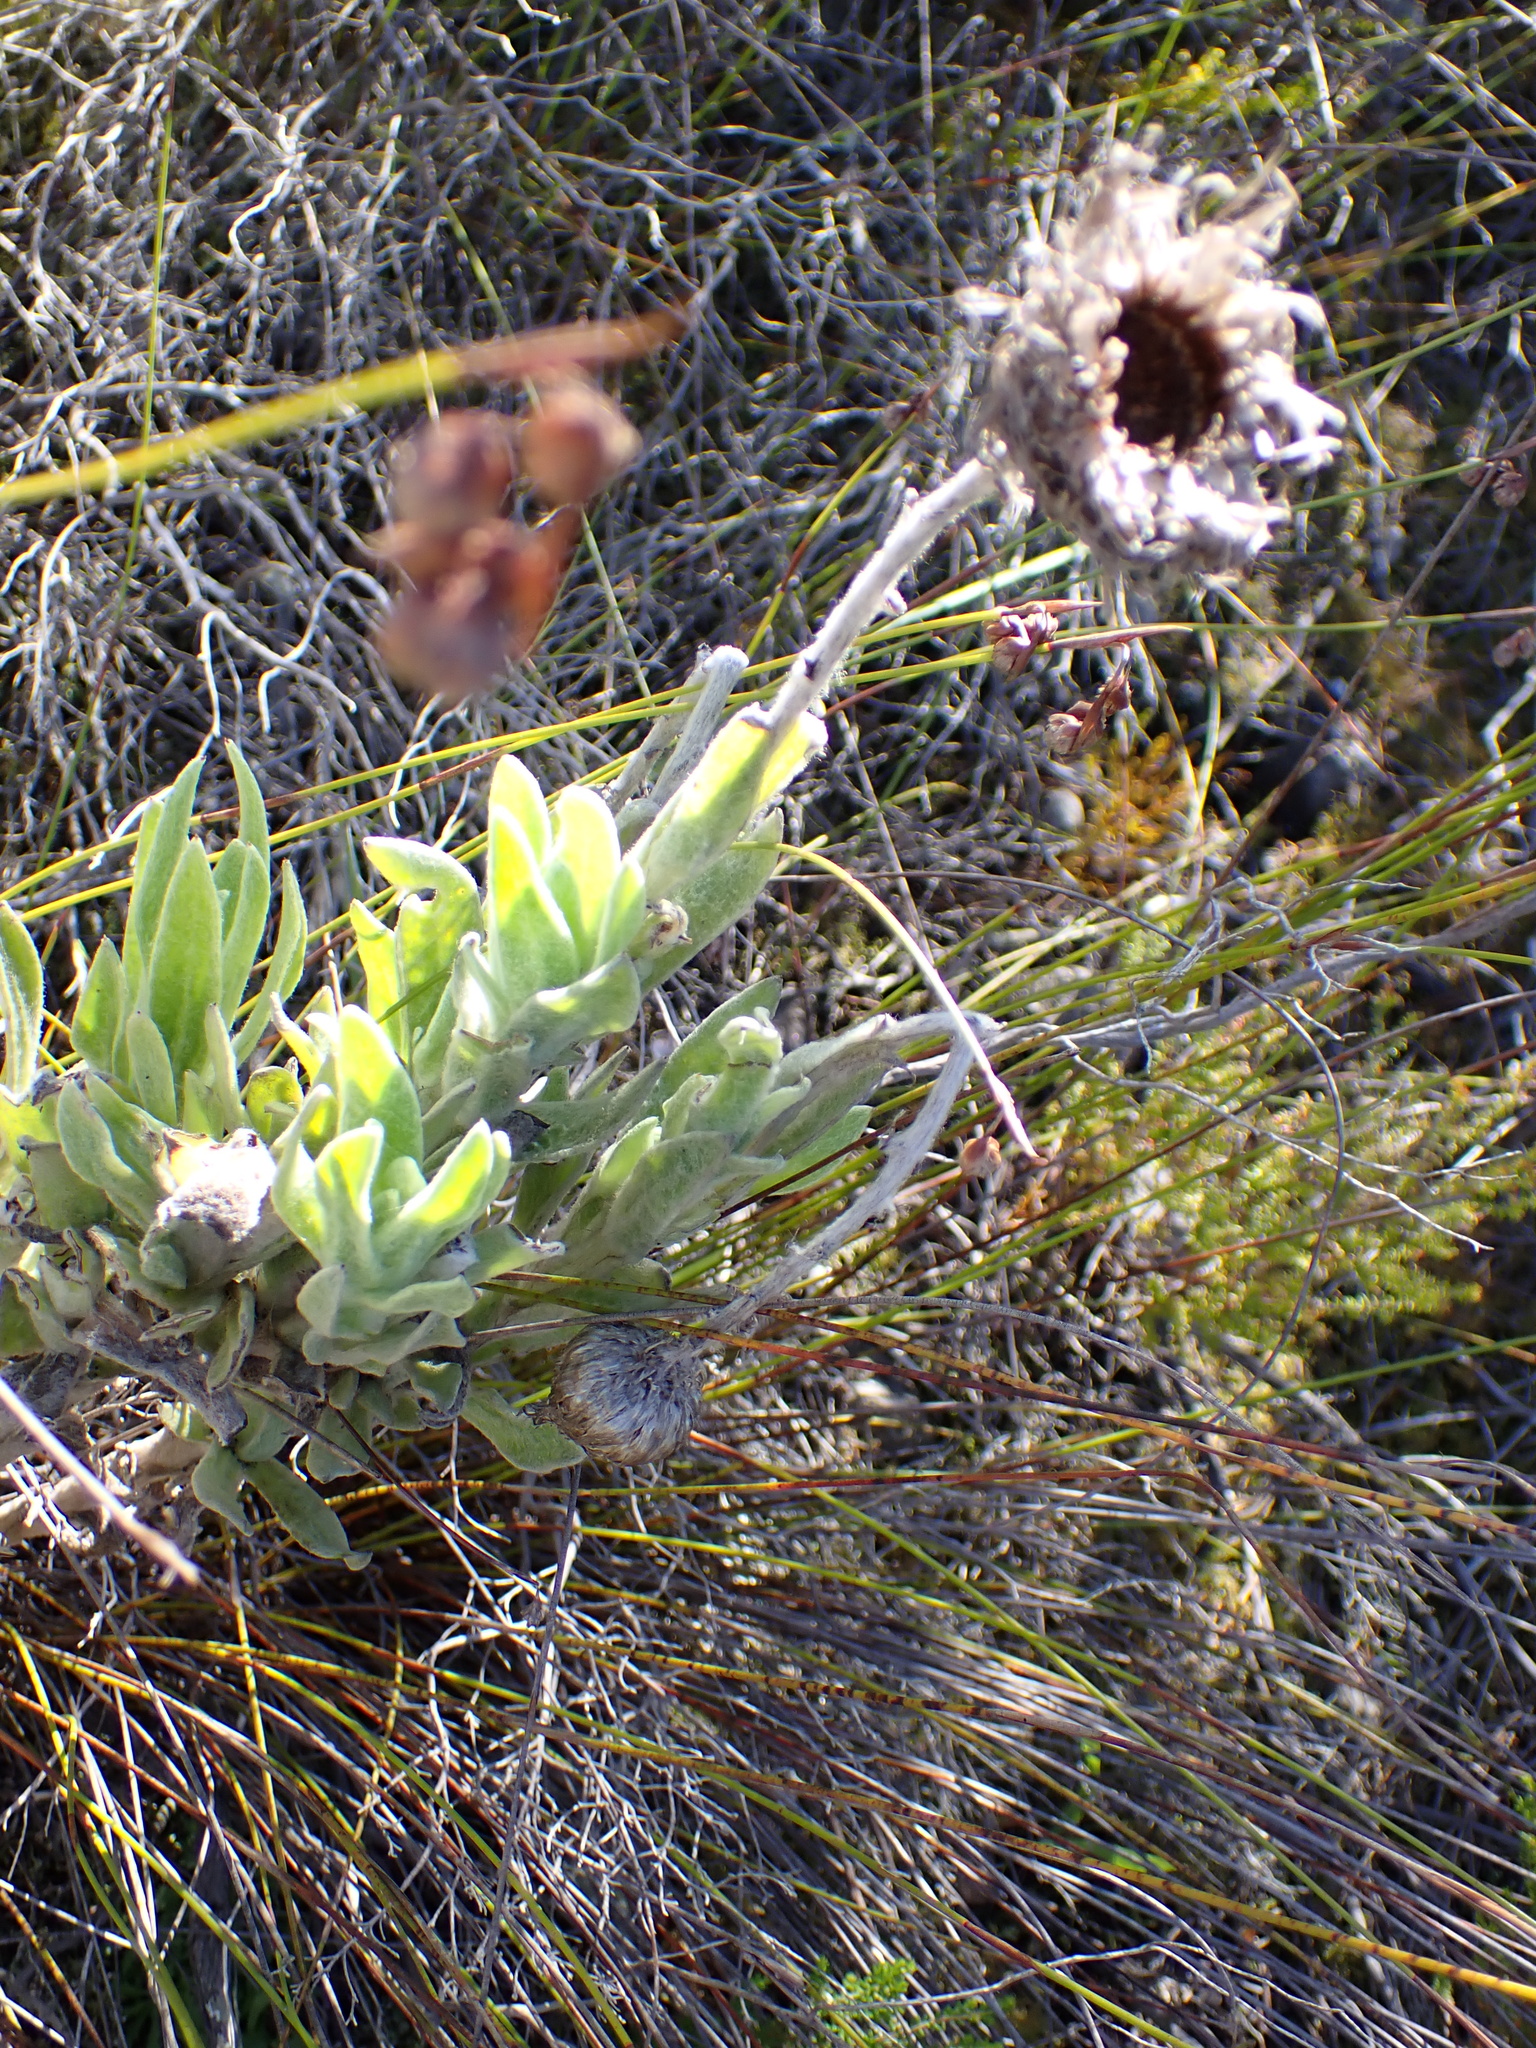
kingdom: Plantae
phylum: Tracheophyta
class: Magnoliopsida
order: Asterales
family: Asteraceae
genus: Syncarpha
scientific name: Syncarpha vestita
